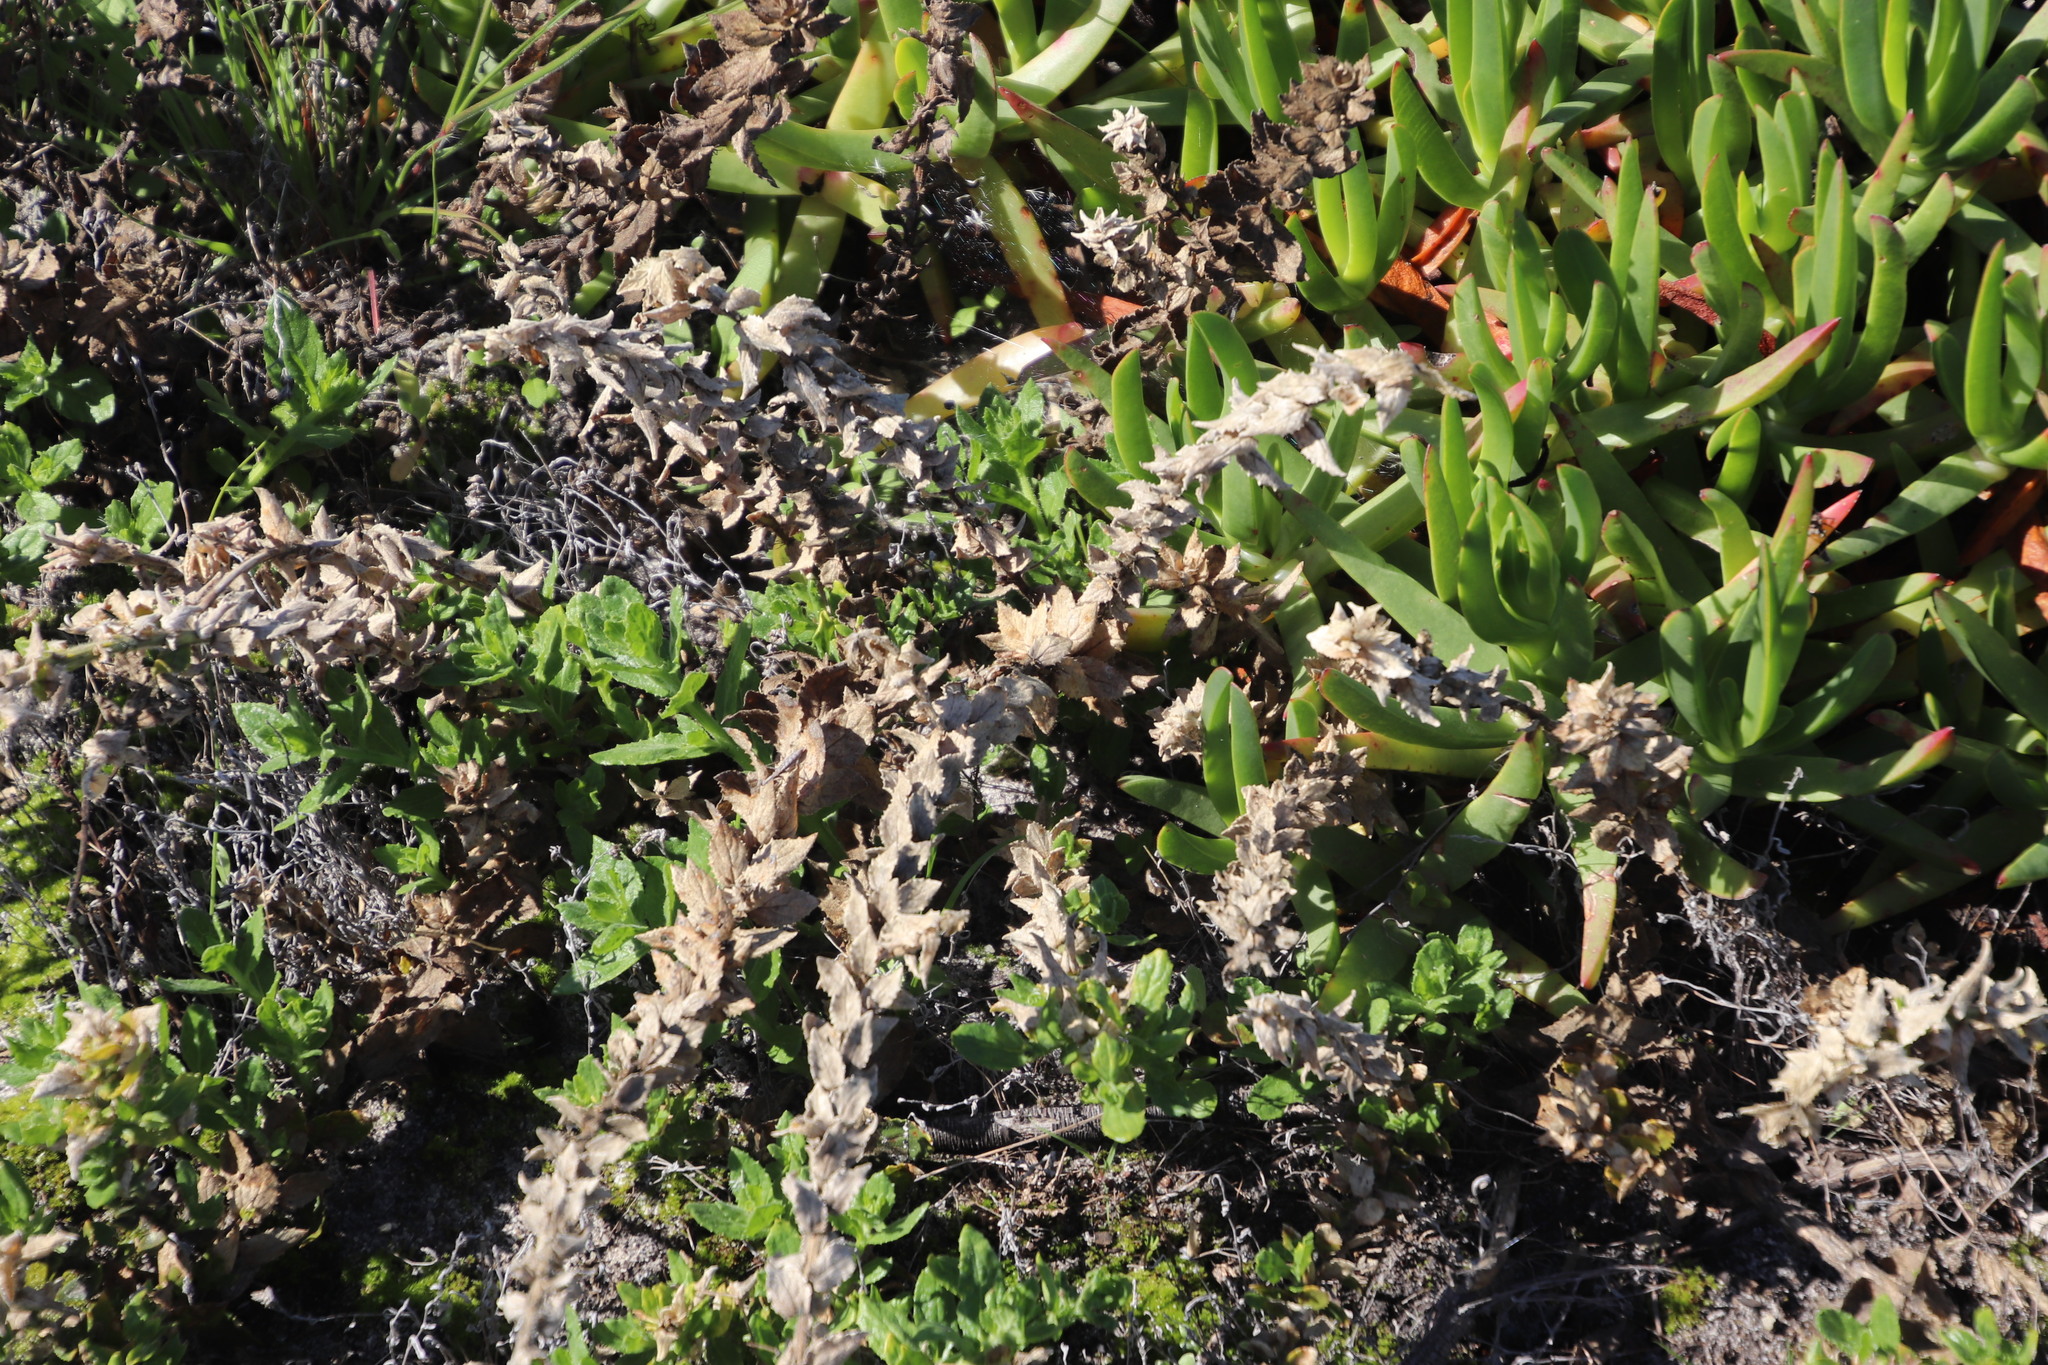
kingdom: Plantae
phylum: Tracheophyta
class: Magnoliopsida
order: Lamiales
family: Scrophulariaceae
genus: Oftia
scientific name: Oftia africana
